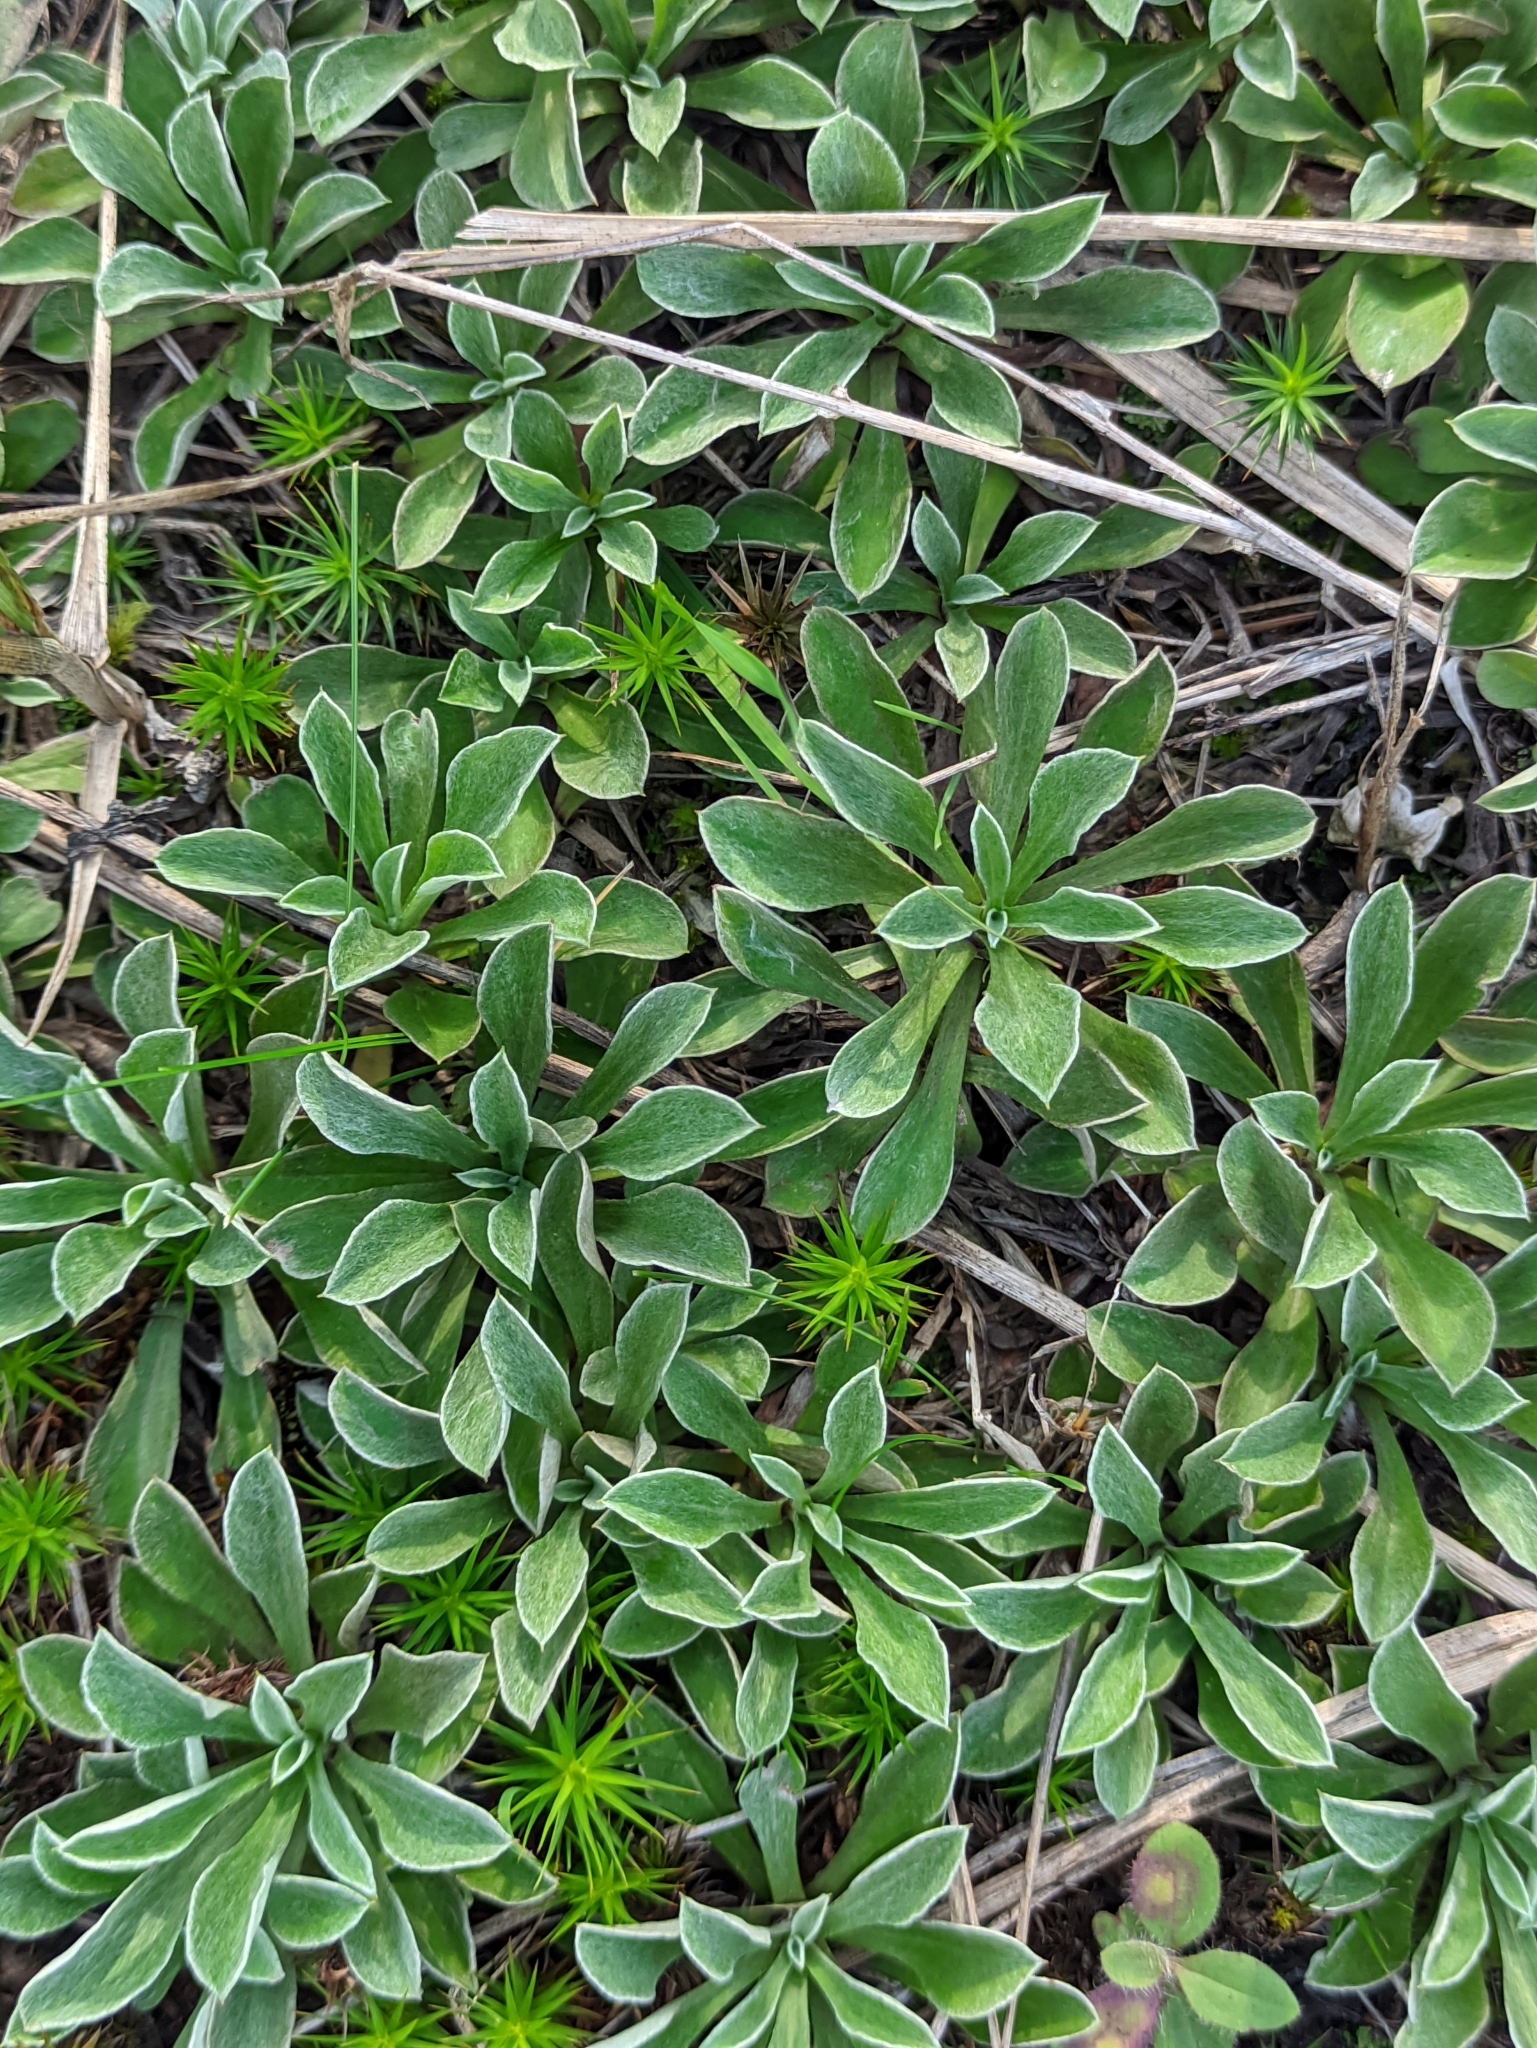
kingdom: Plantae
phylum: Tracheophyta
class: Magnoliopsida
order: Asterales
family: Asteraceae
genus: Antennaria
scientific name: Antennaria dioica
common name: Mountain everlasting
